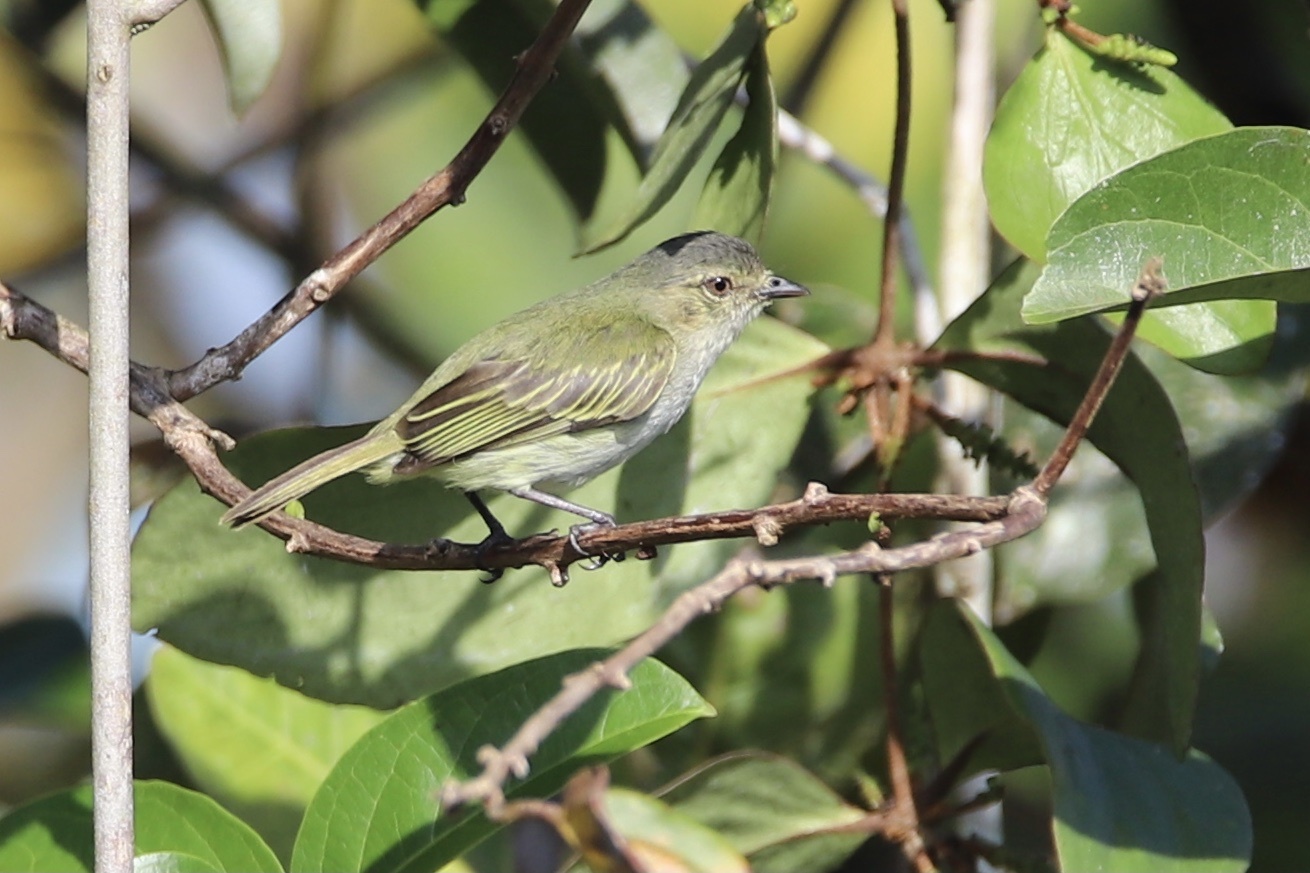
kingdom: Animalia
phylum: Chordata
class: Aves
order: Passeriformes
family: Tyrannidae
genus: Zimmerius
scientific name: Zimmerius vilissimus
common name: Paltry tyrannulet
